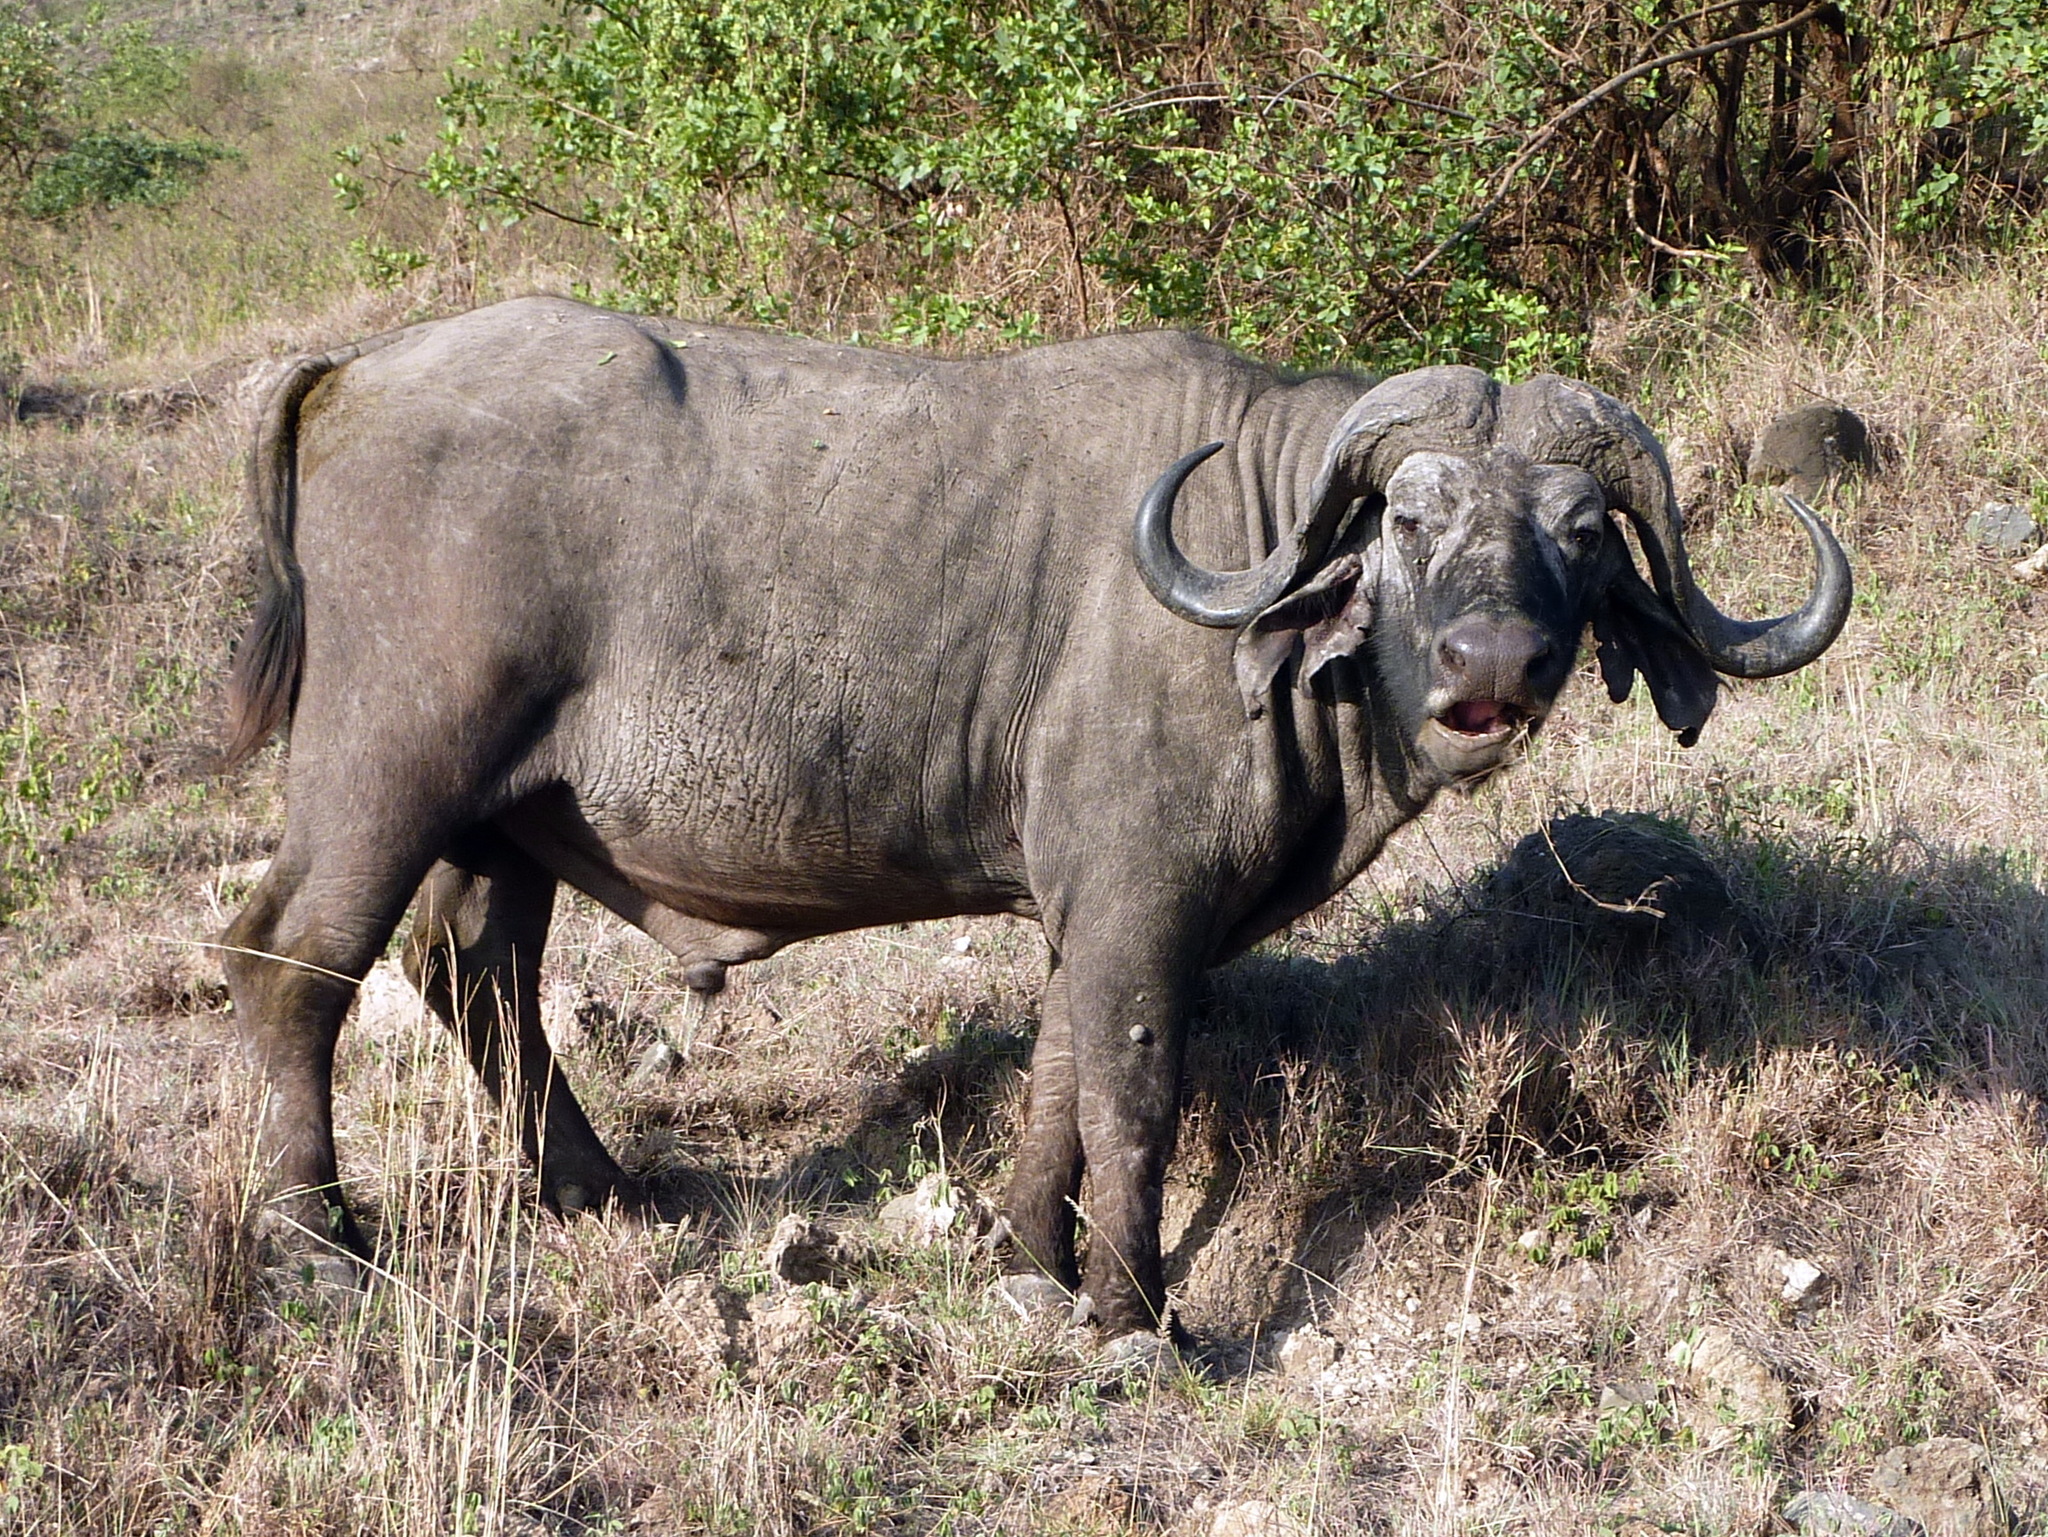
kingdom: Animalia
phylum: Chordata
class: Mammalia
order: Artiodactyla
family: Bovidae
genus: Syncerus
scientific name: Syncerus caffer
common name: African buffalo
